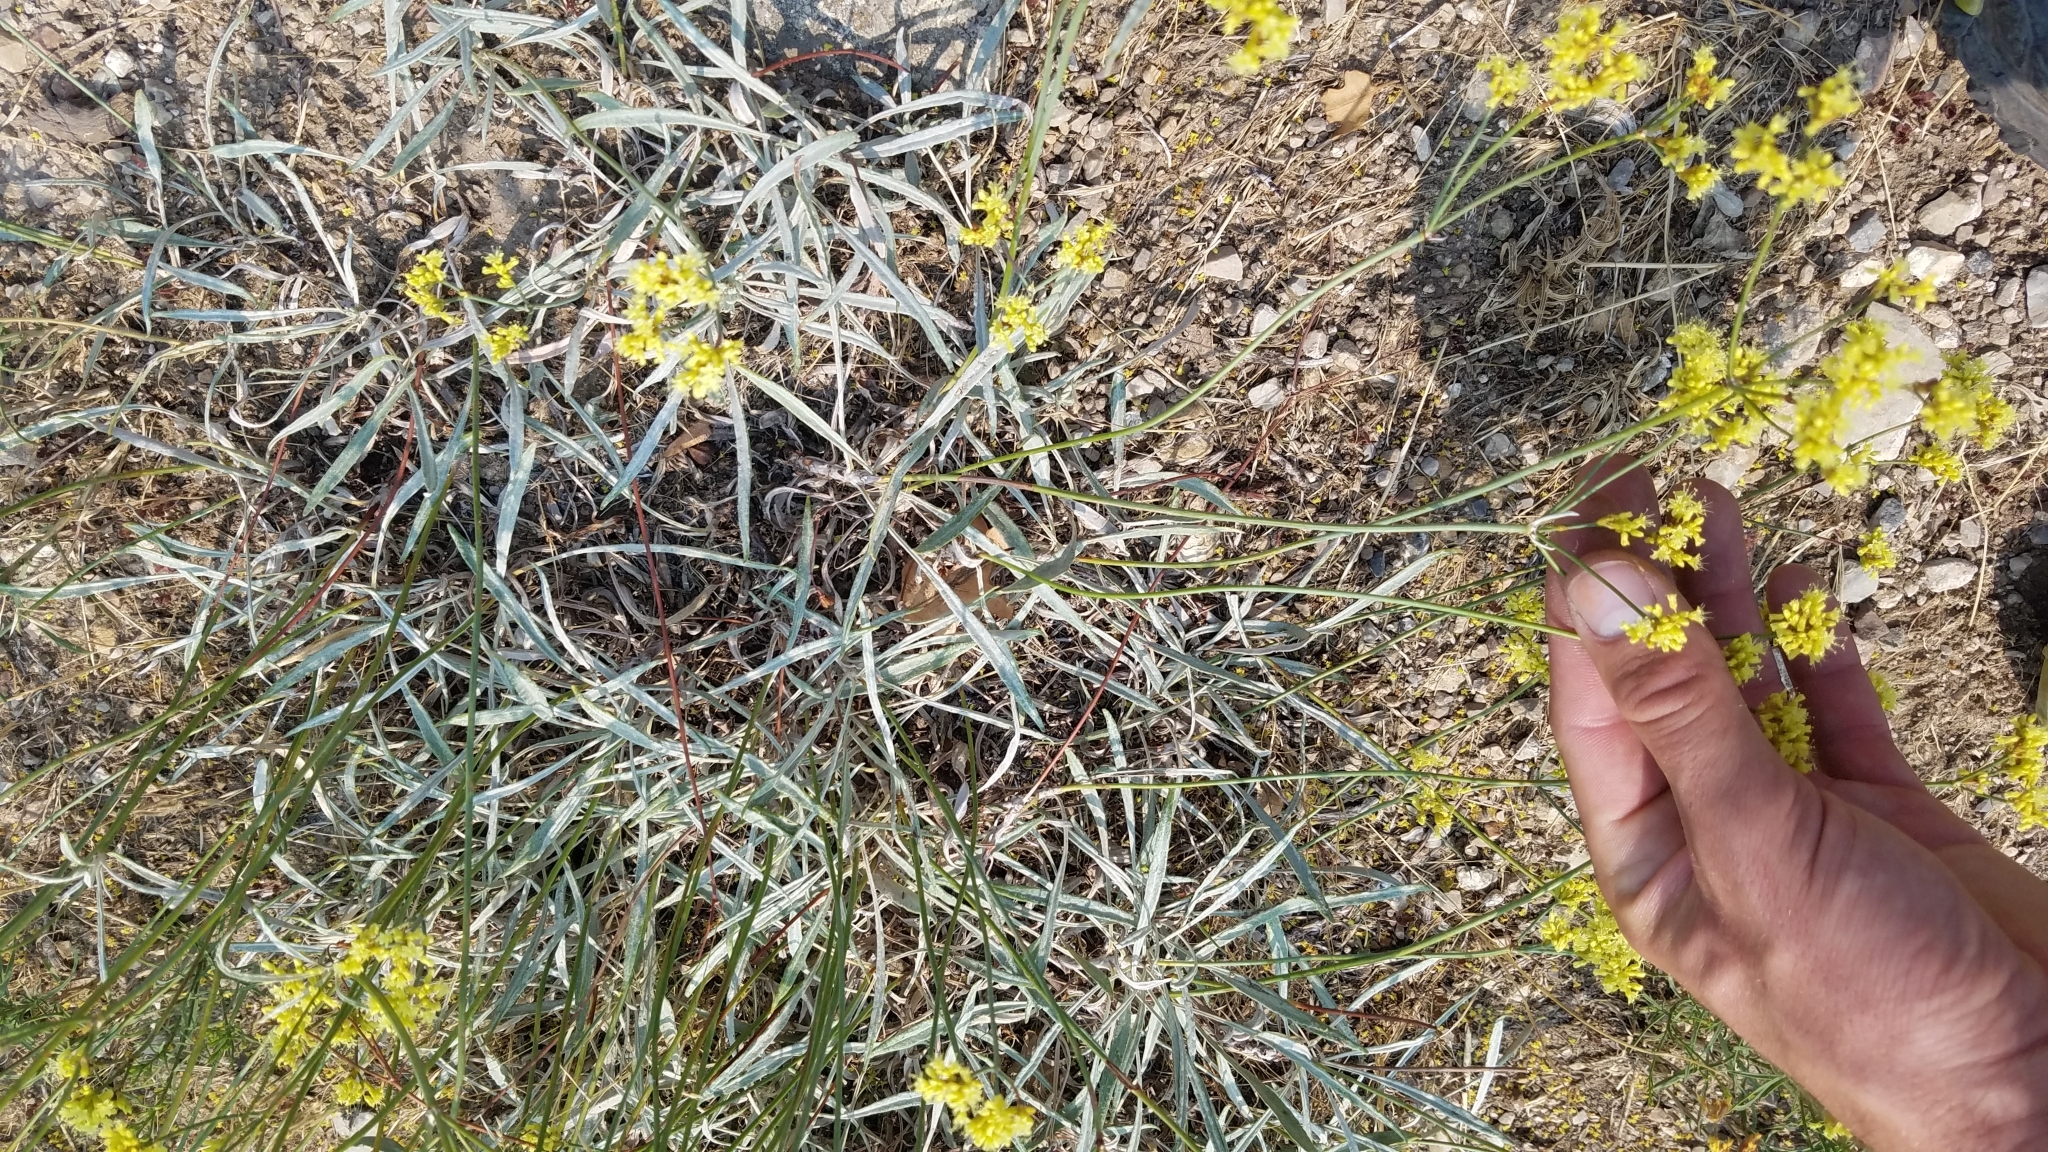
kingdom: Plantae
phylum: Tracheophyta
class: Magnoliopsida
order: Caryophyllales
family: Polygonaceae
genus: Eriogonum
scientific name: Eriogonum brevicaule
